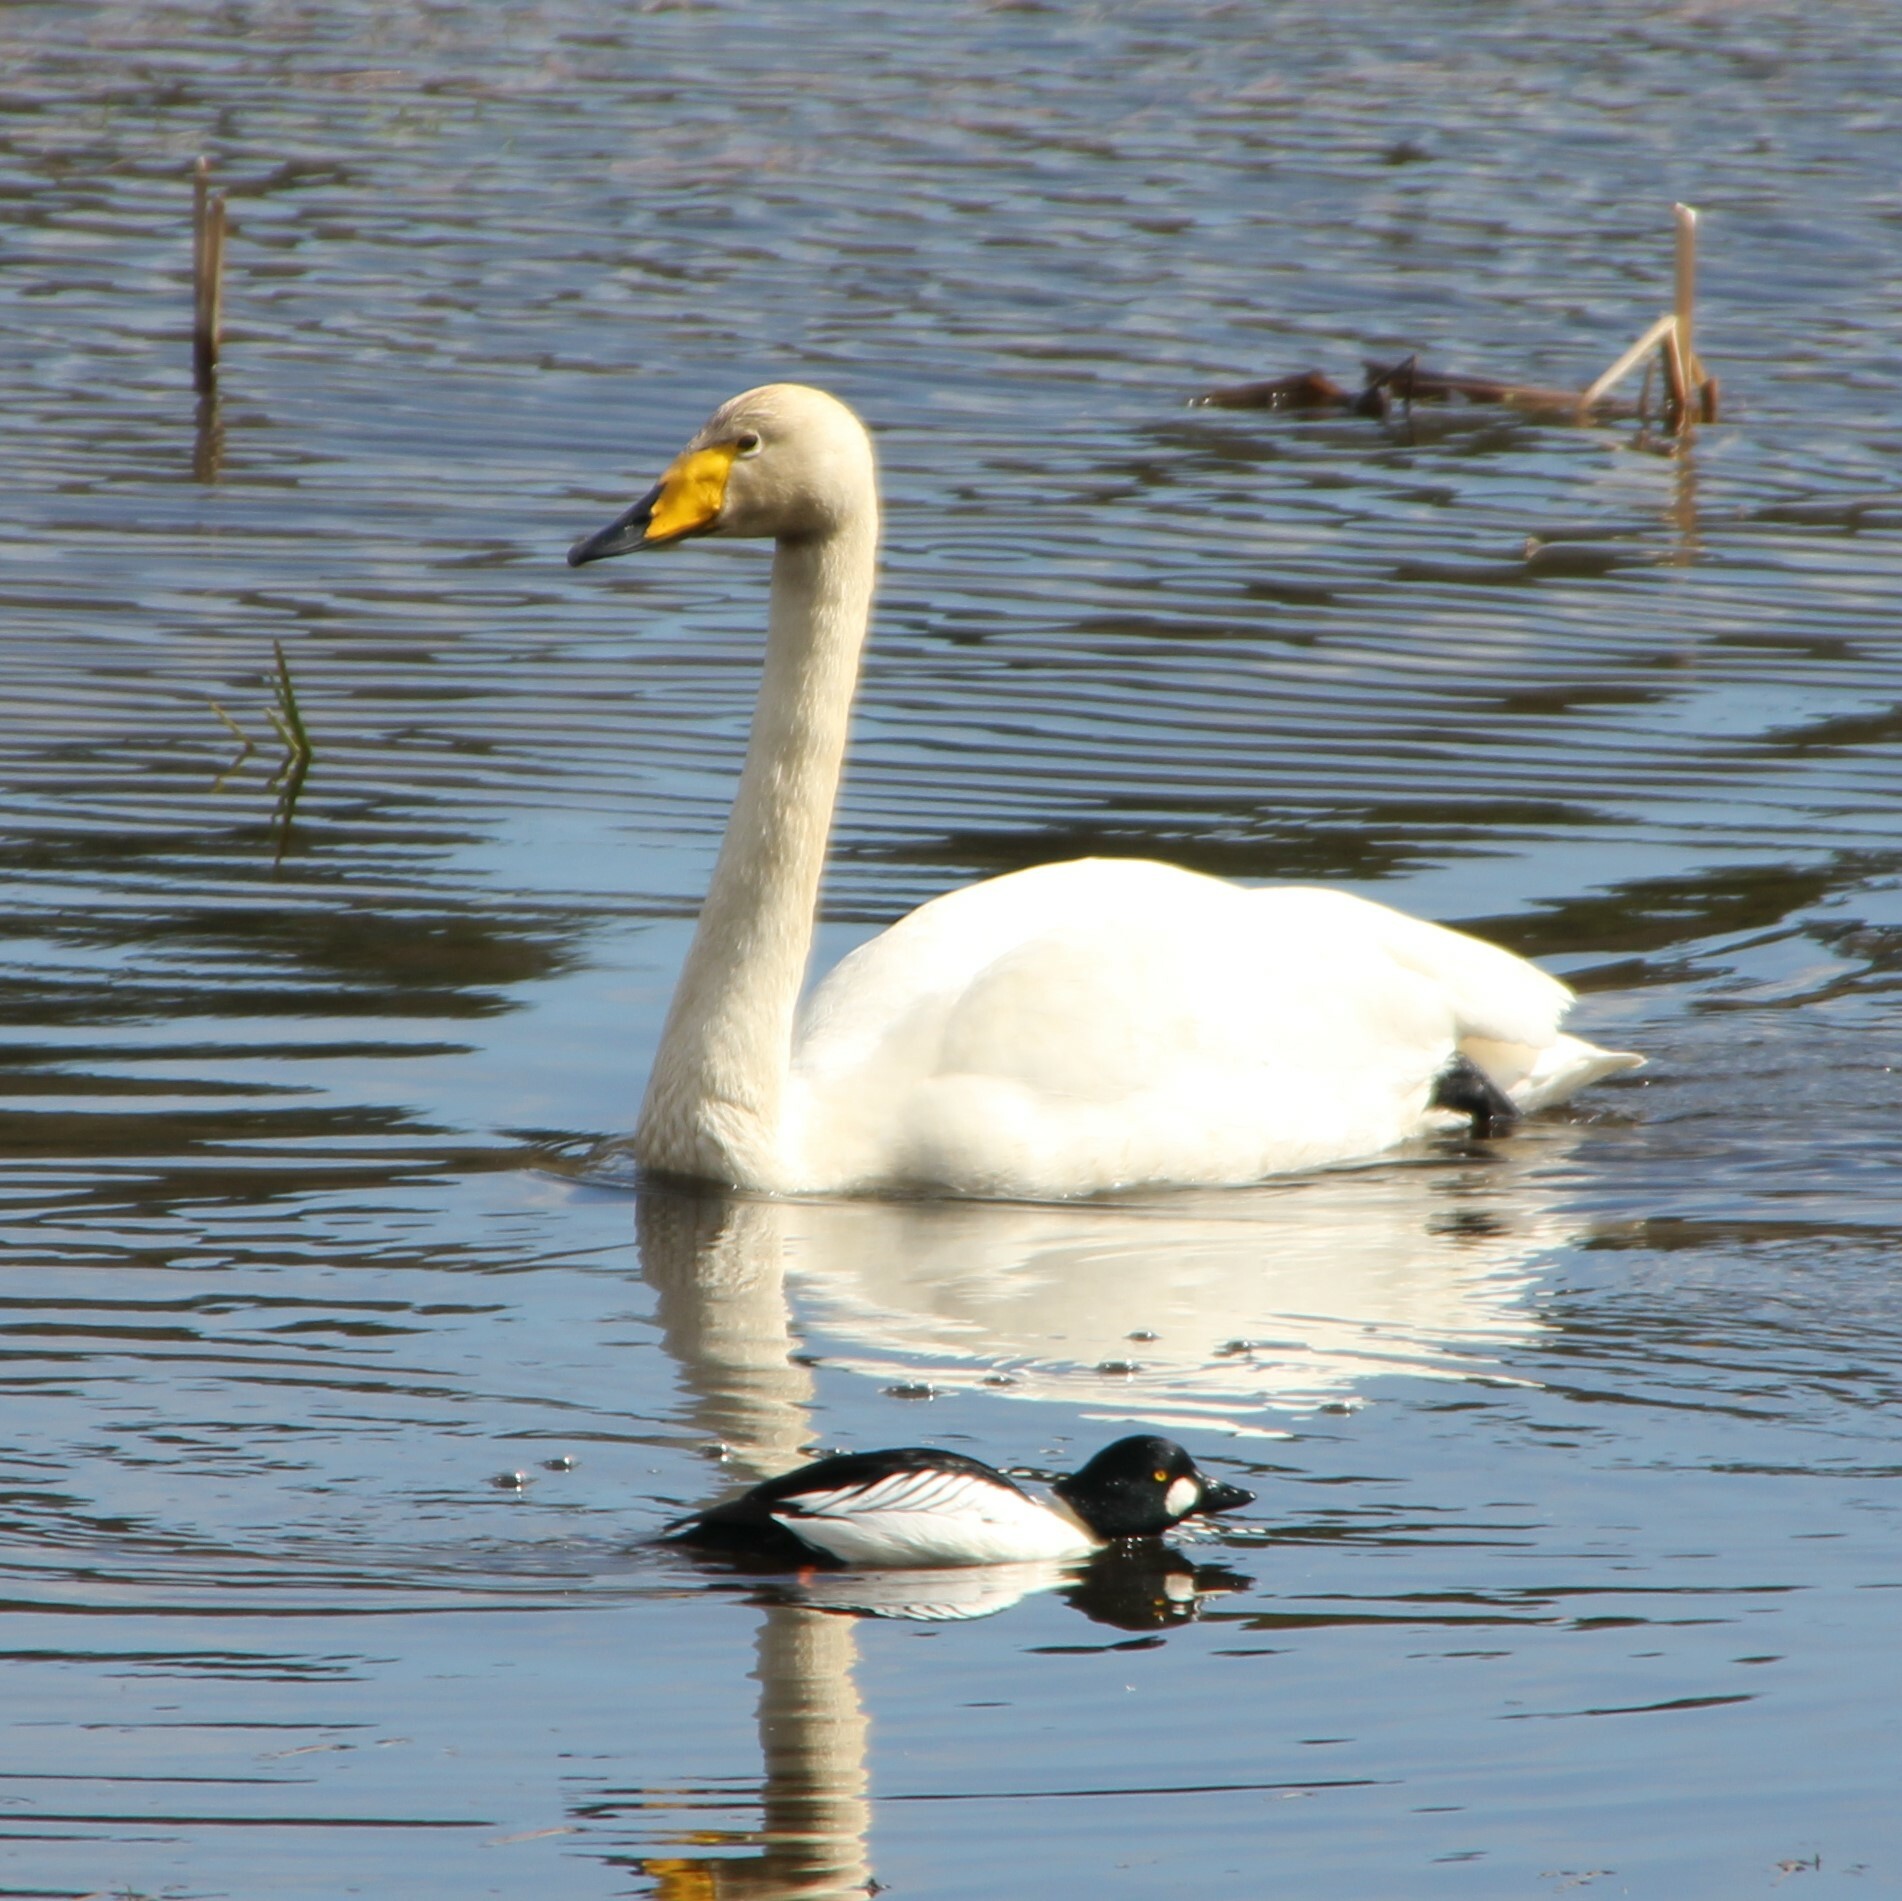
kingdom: Animalia
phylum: Chordata
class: Aves
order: Anseriformes
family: Anatidae
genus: Cygnus
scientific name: Cygnus cygnus
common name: Whooper swan
